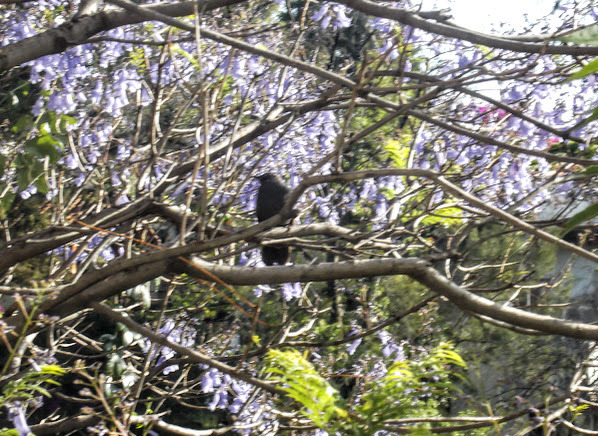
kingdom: Animalia
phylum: Chordata
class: Aves
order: Passeriformes
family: Mimidae
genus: Melanotis
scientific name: Melanotis caerulescens
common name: Blue mockingbird
